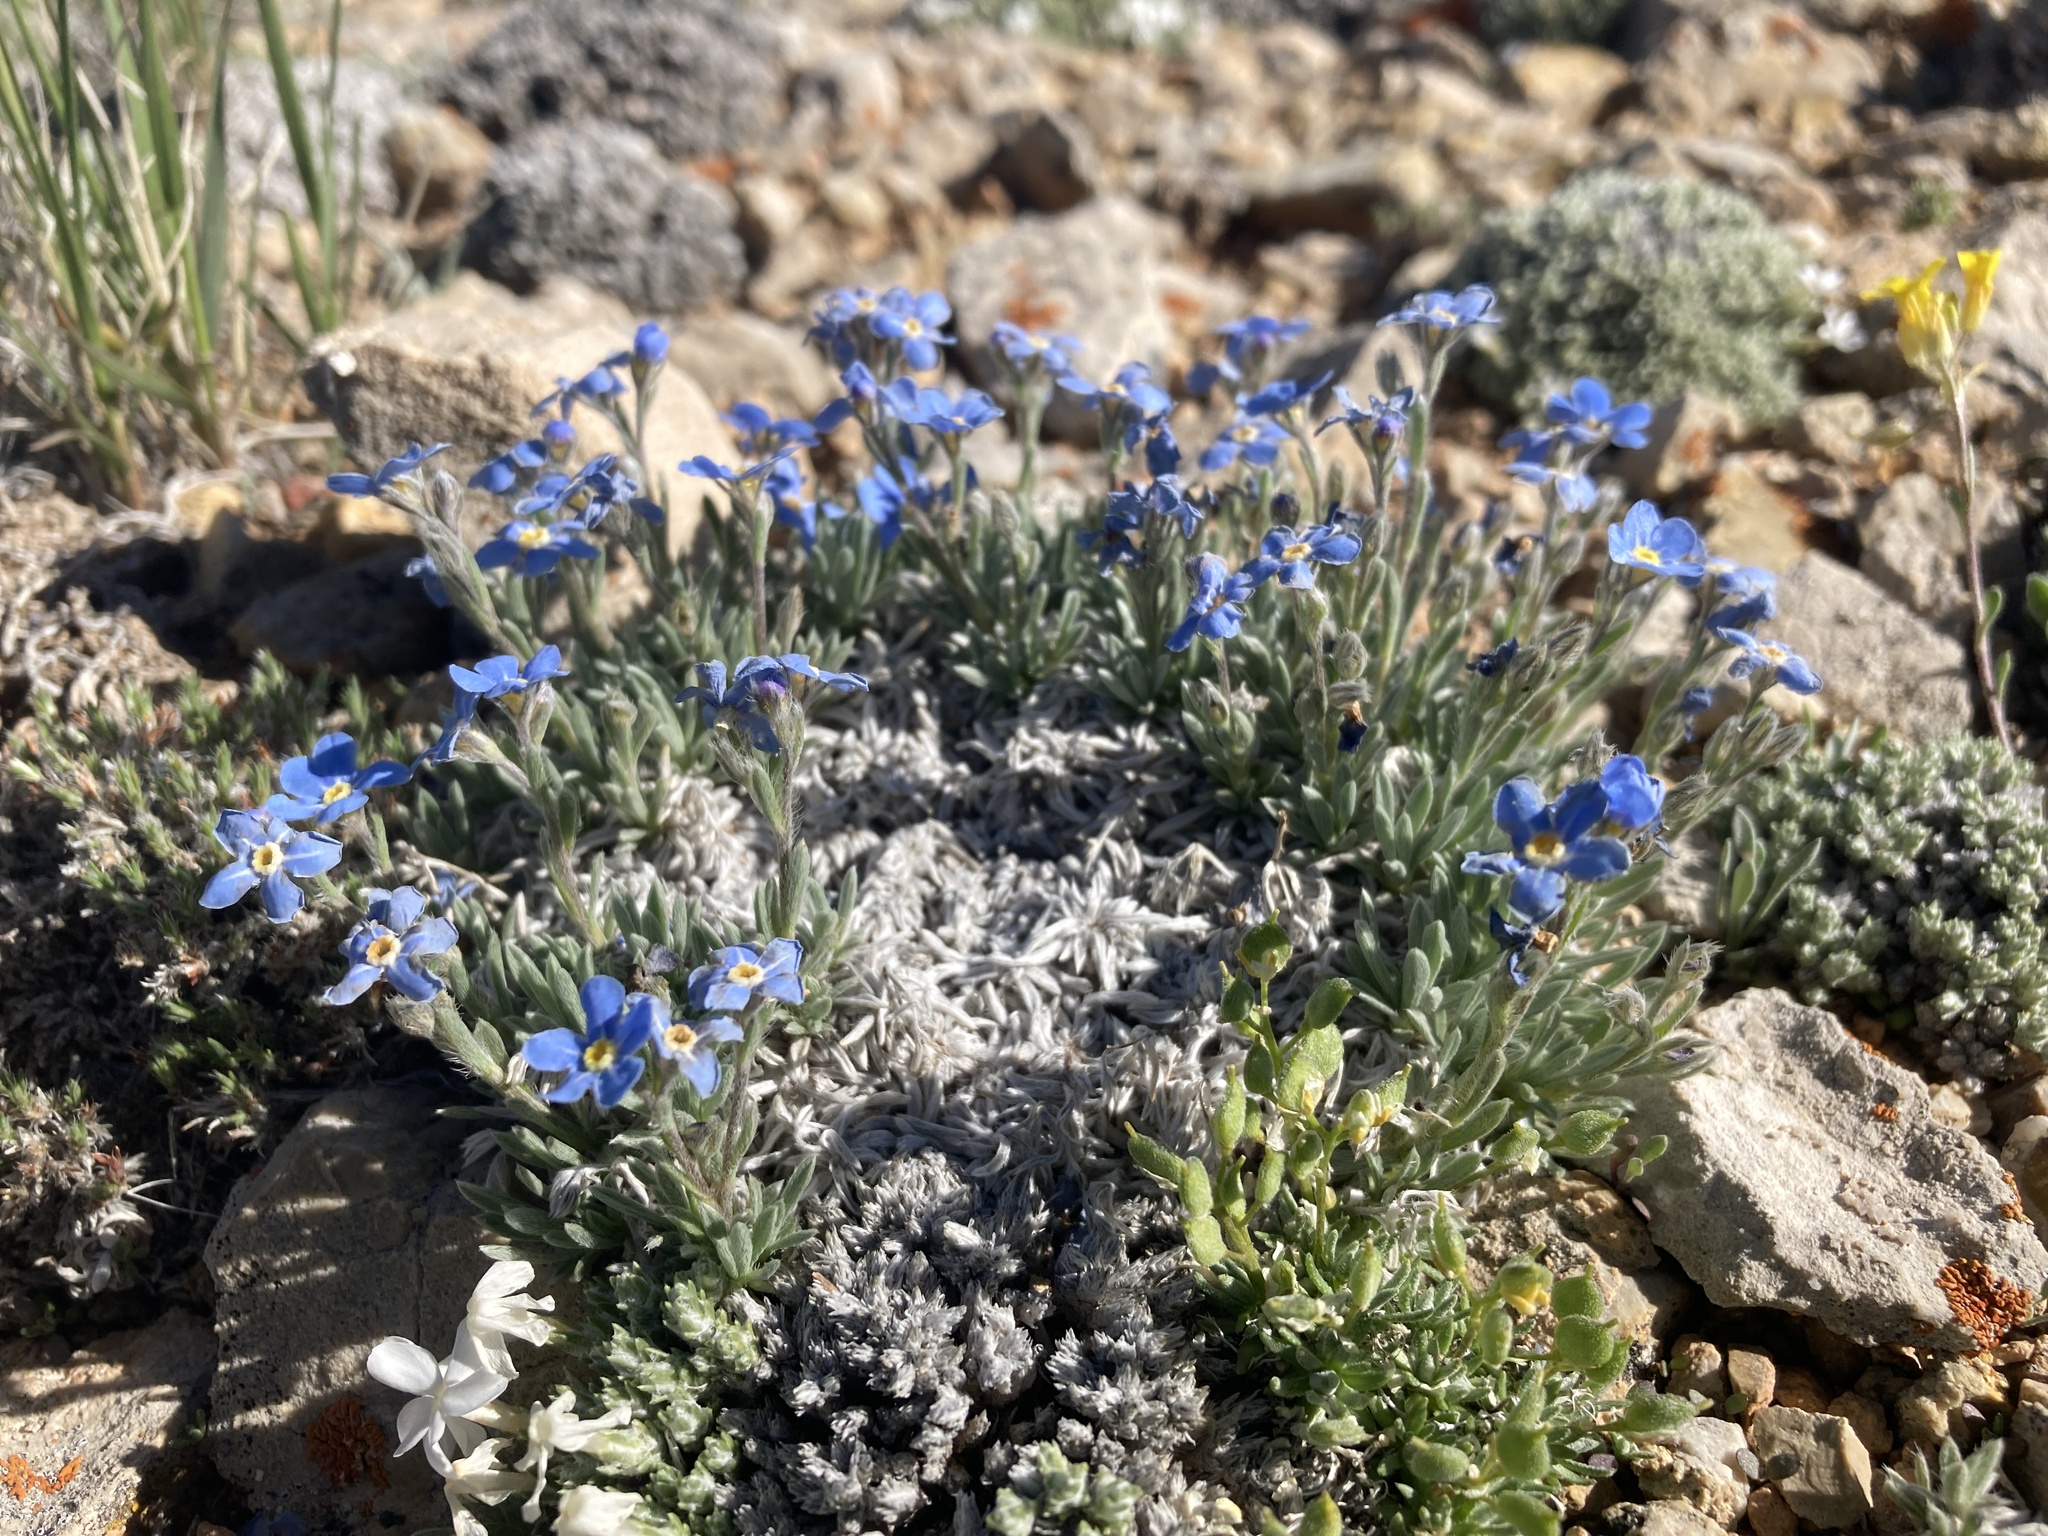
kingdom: Plantae
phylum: Tracheophyta
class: Magnoliopsida
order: Boraginales
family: Boraginaceae
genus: Eritrichium
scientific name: Eritrichium howardii
